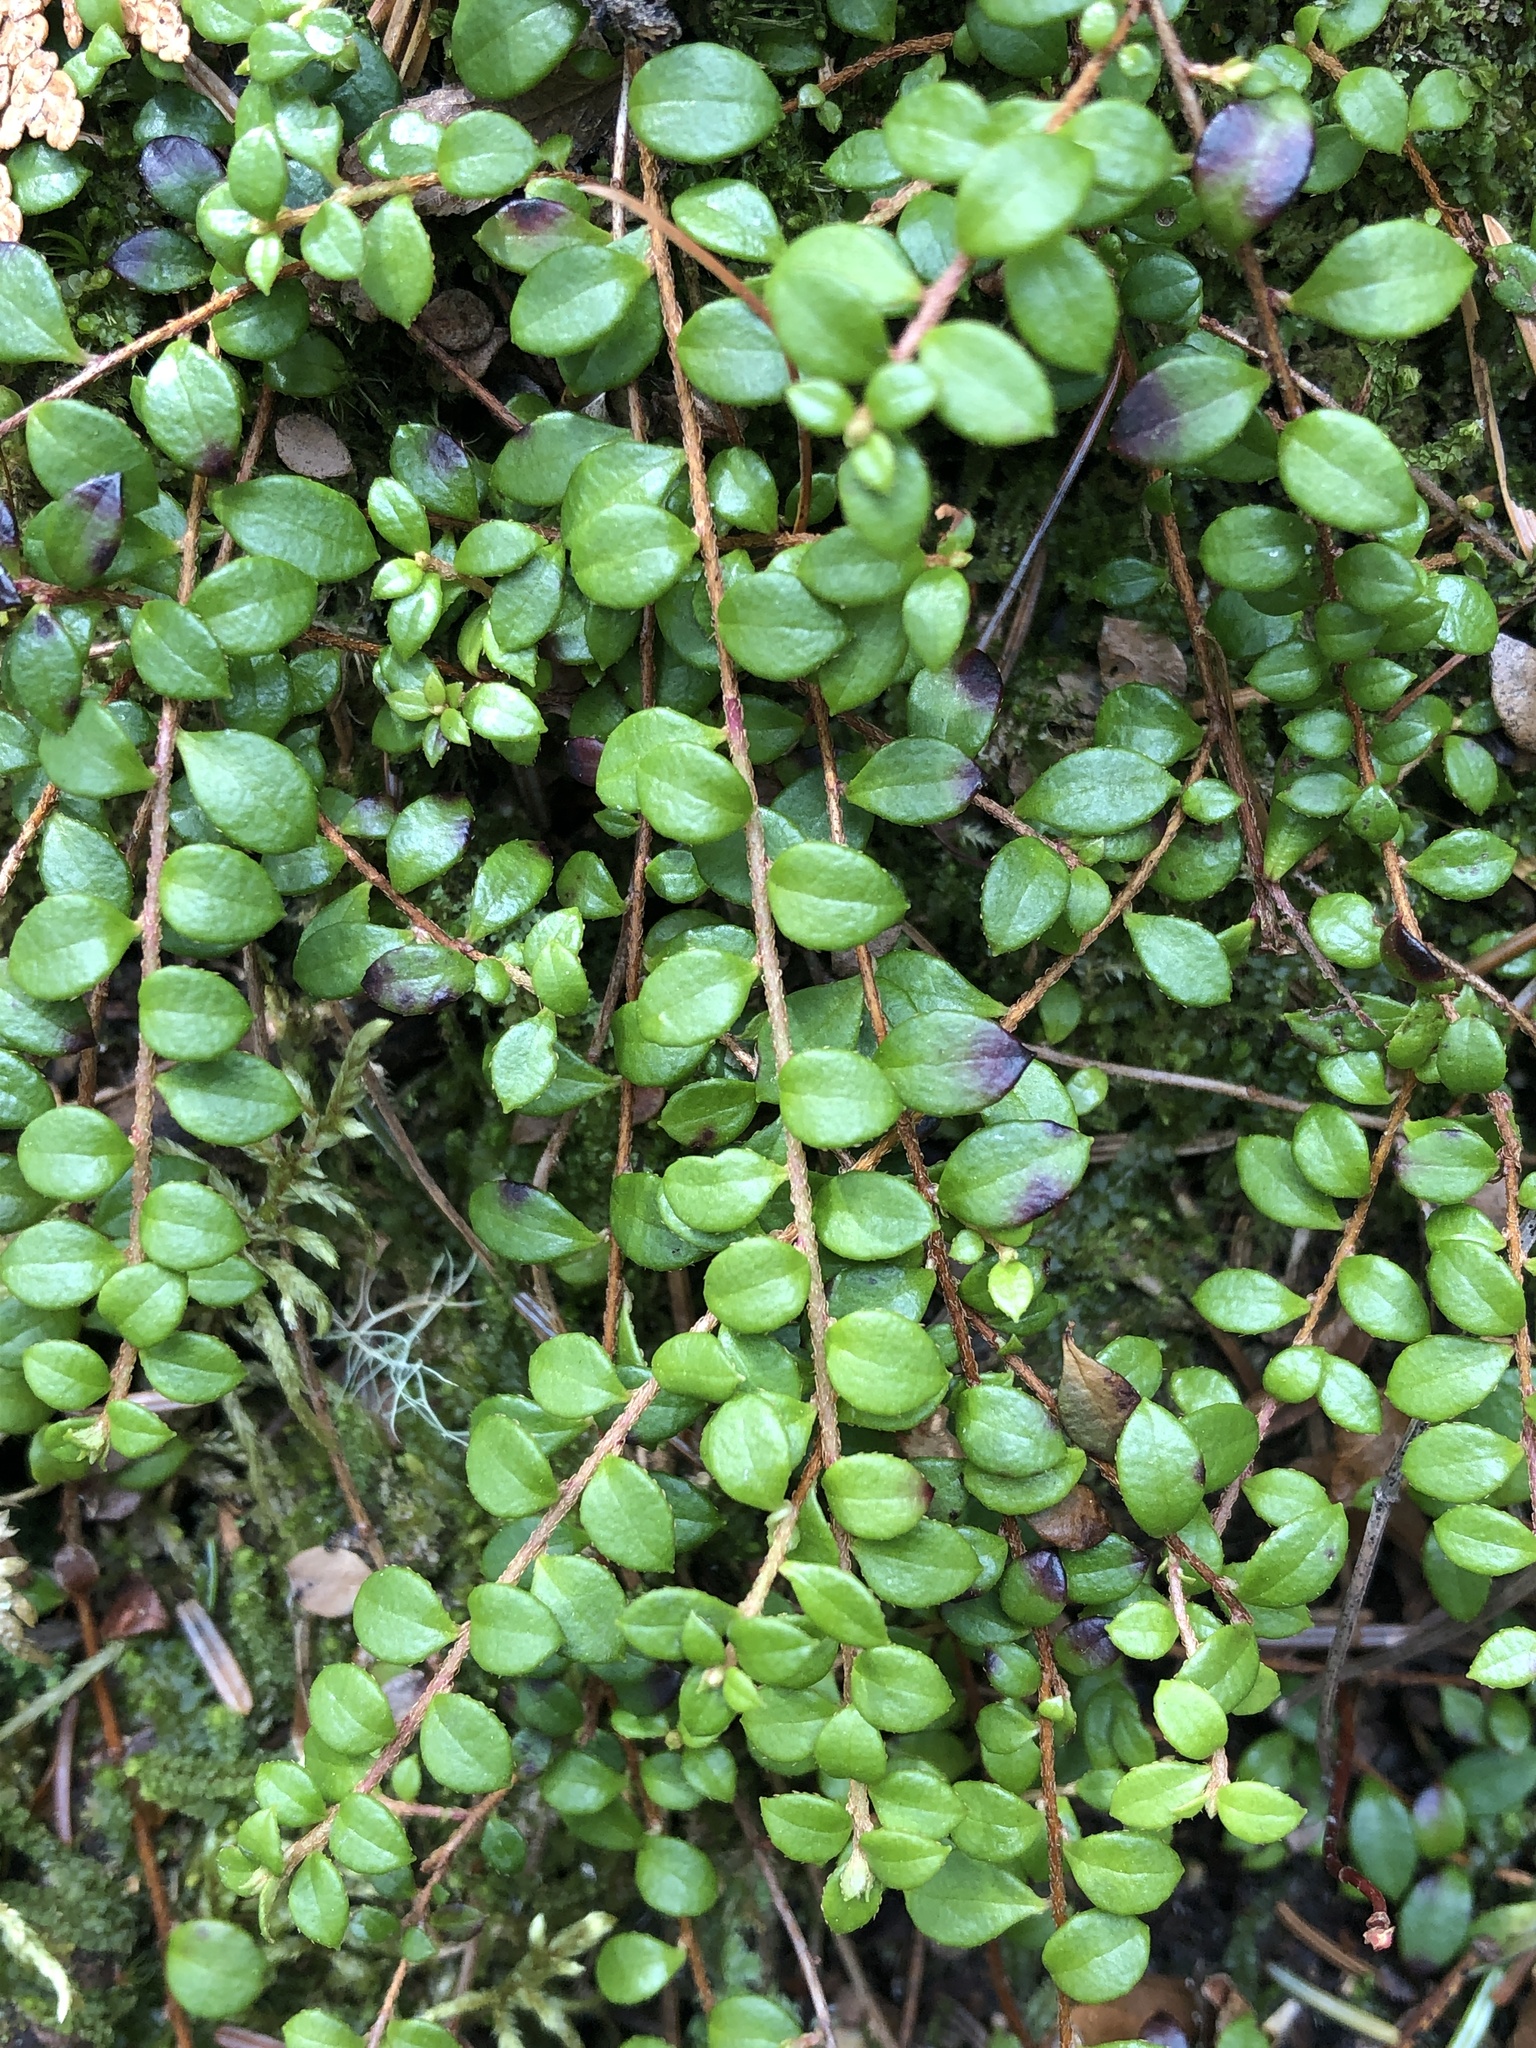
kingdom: Plantae
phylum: Tracheophyta
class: Magnoliopsida
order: Ericales
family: Ericaceae
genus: Gaultheria
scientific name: Gaultheria hispidula
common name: Cancer wintergreen
